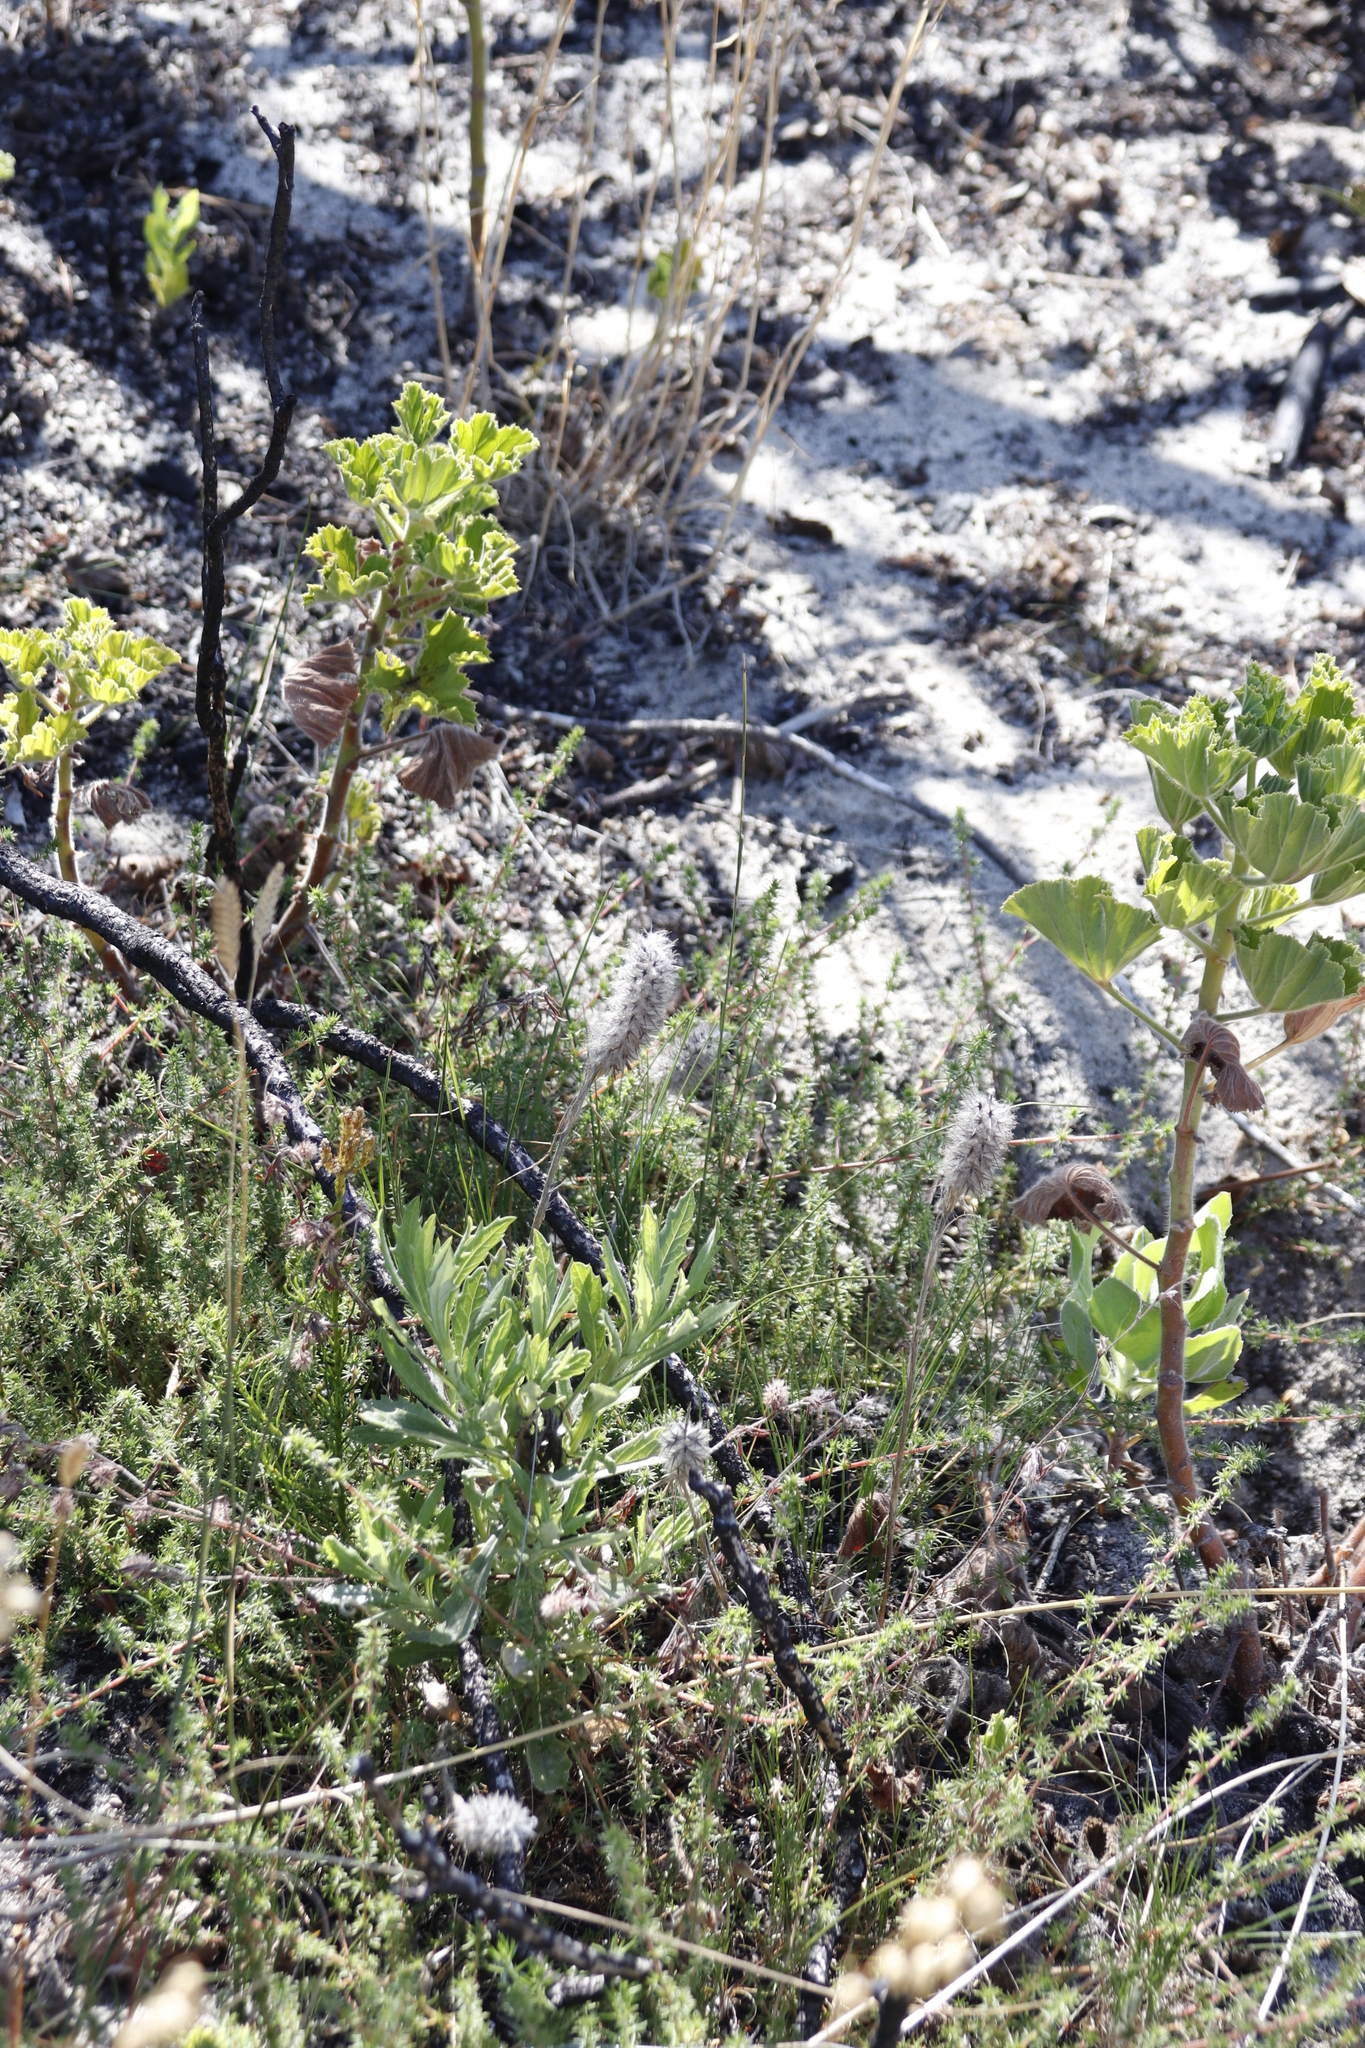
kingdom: Plantae
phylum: Tracheophyta
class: Magnoliopsida
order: Fabales
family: Fabaceae
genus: Trifolium
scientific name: Trifolium angustifolium
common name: Narrow clover
